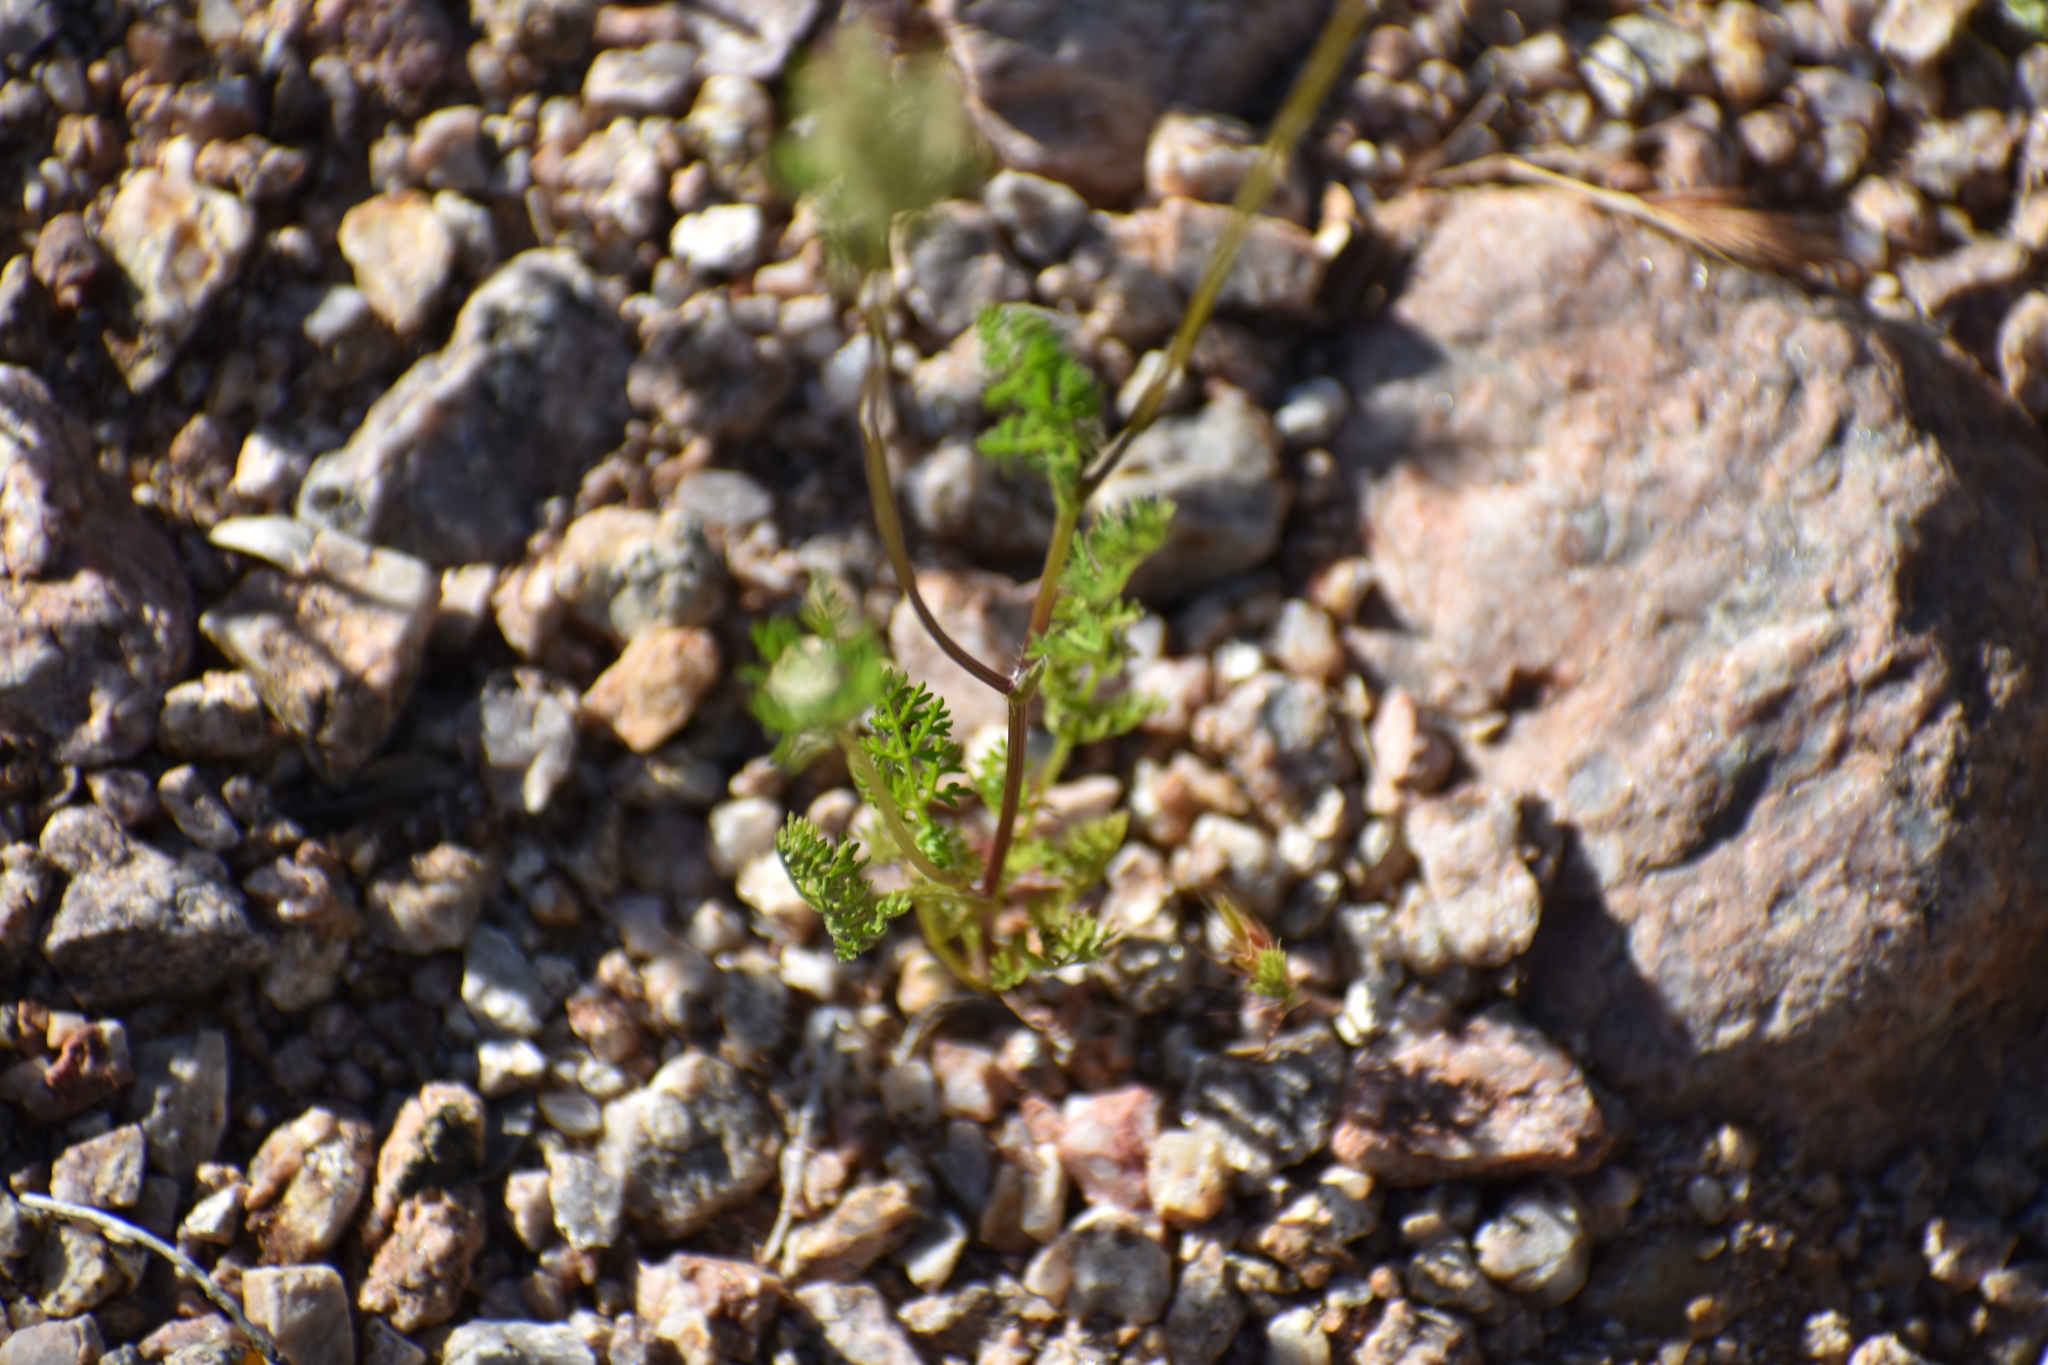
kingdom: Plantae
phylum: Tracheophyta
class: Magnoliopsida
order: Apiales
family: Apiaceae
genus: Daucus
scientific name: Daucus pusillus
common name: Southwest wild carrot
